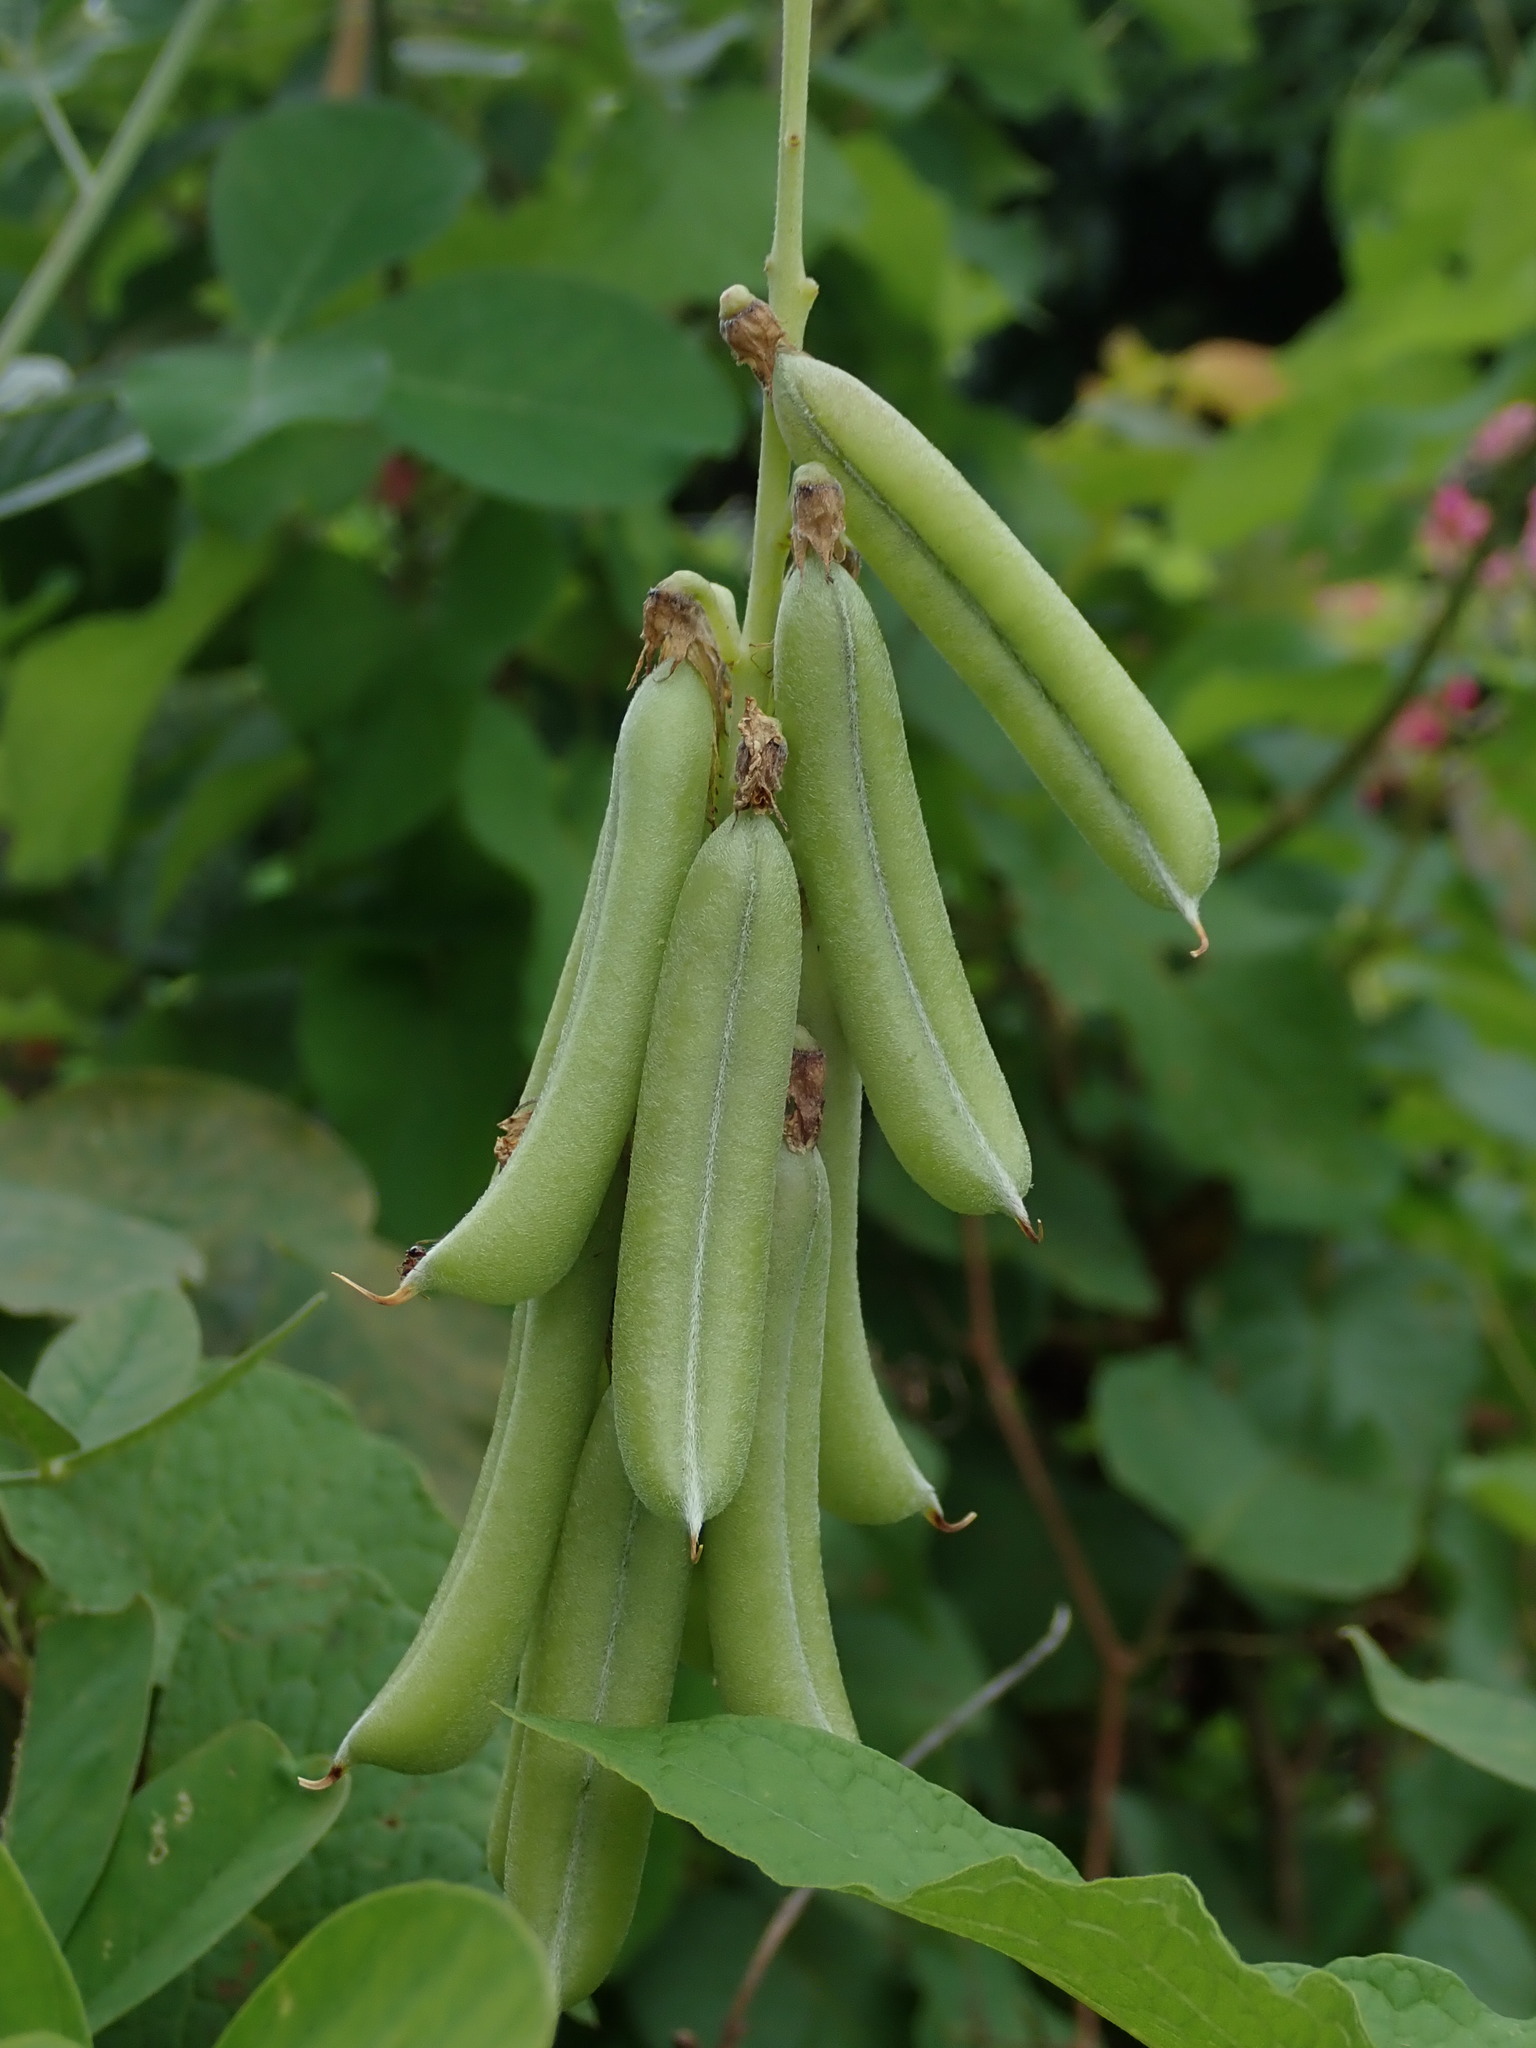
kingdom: Plantae
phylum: Tracheophyta
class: Magnoliopsida
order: Fabales
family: Fabaceae
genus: Crotalaria
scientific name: Crotalaria pallida
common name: Smooth rattlebox
